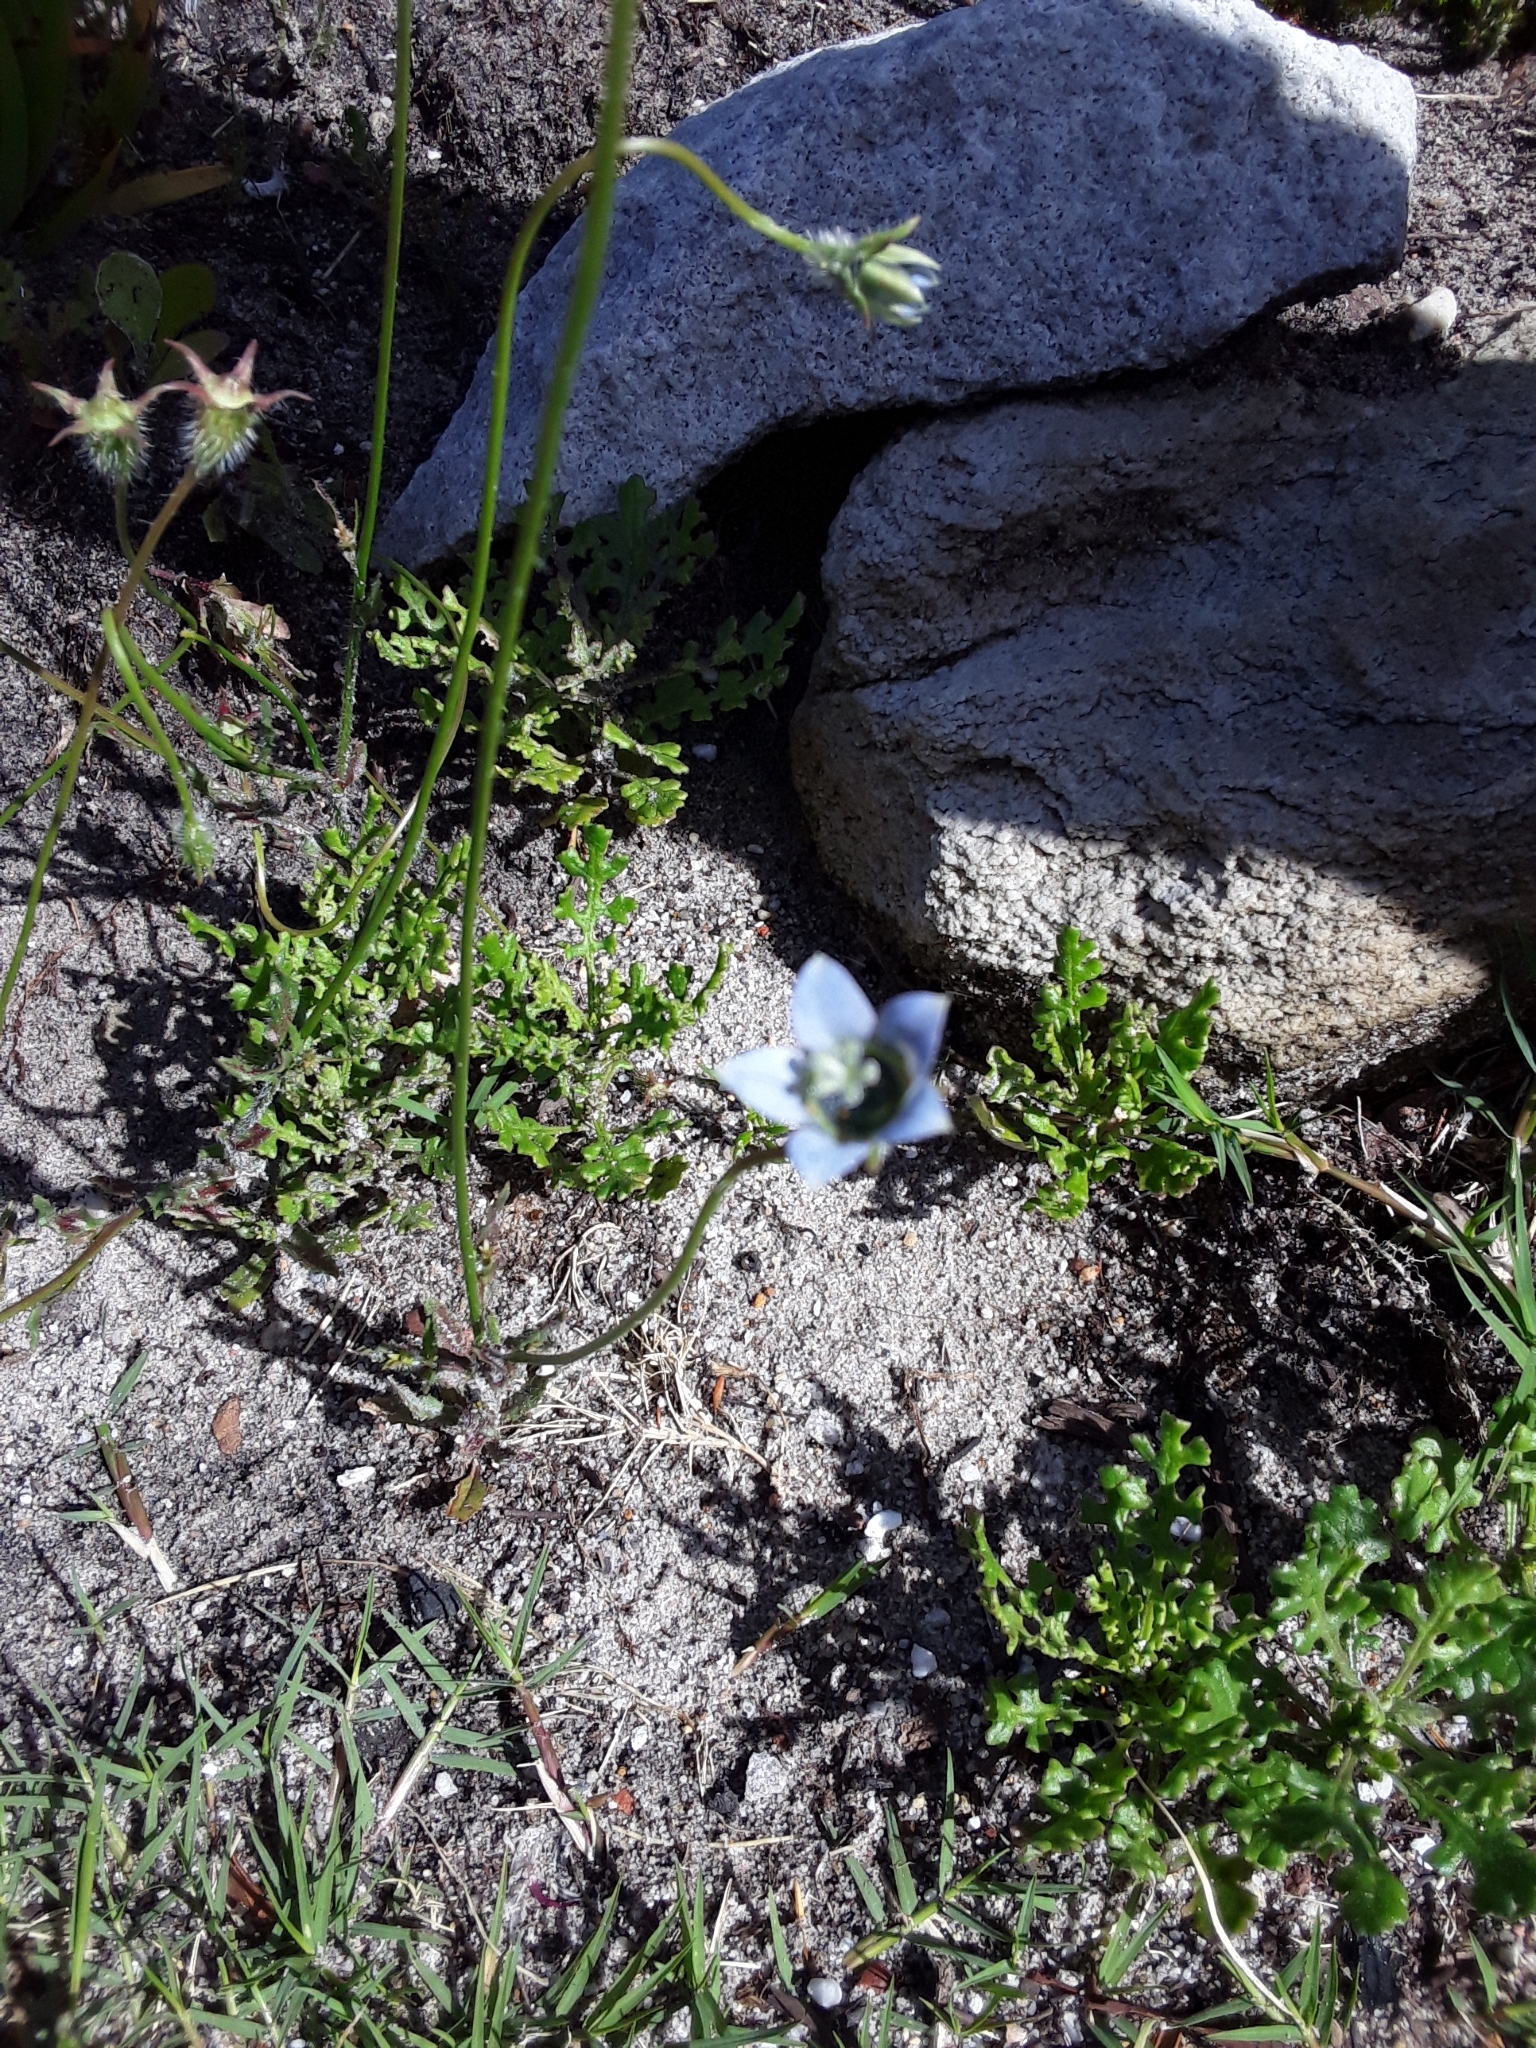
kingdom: Plantae
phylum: Tracheophyta
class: Magnoliopsida
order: Asterales
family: Campanulaceae
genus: Wahlenbergia
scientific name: Wahlenbergia capensis
